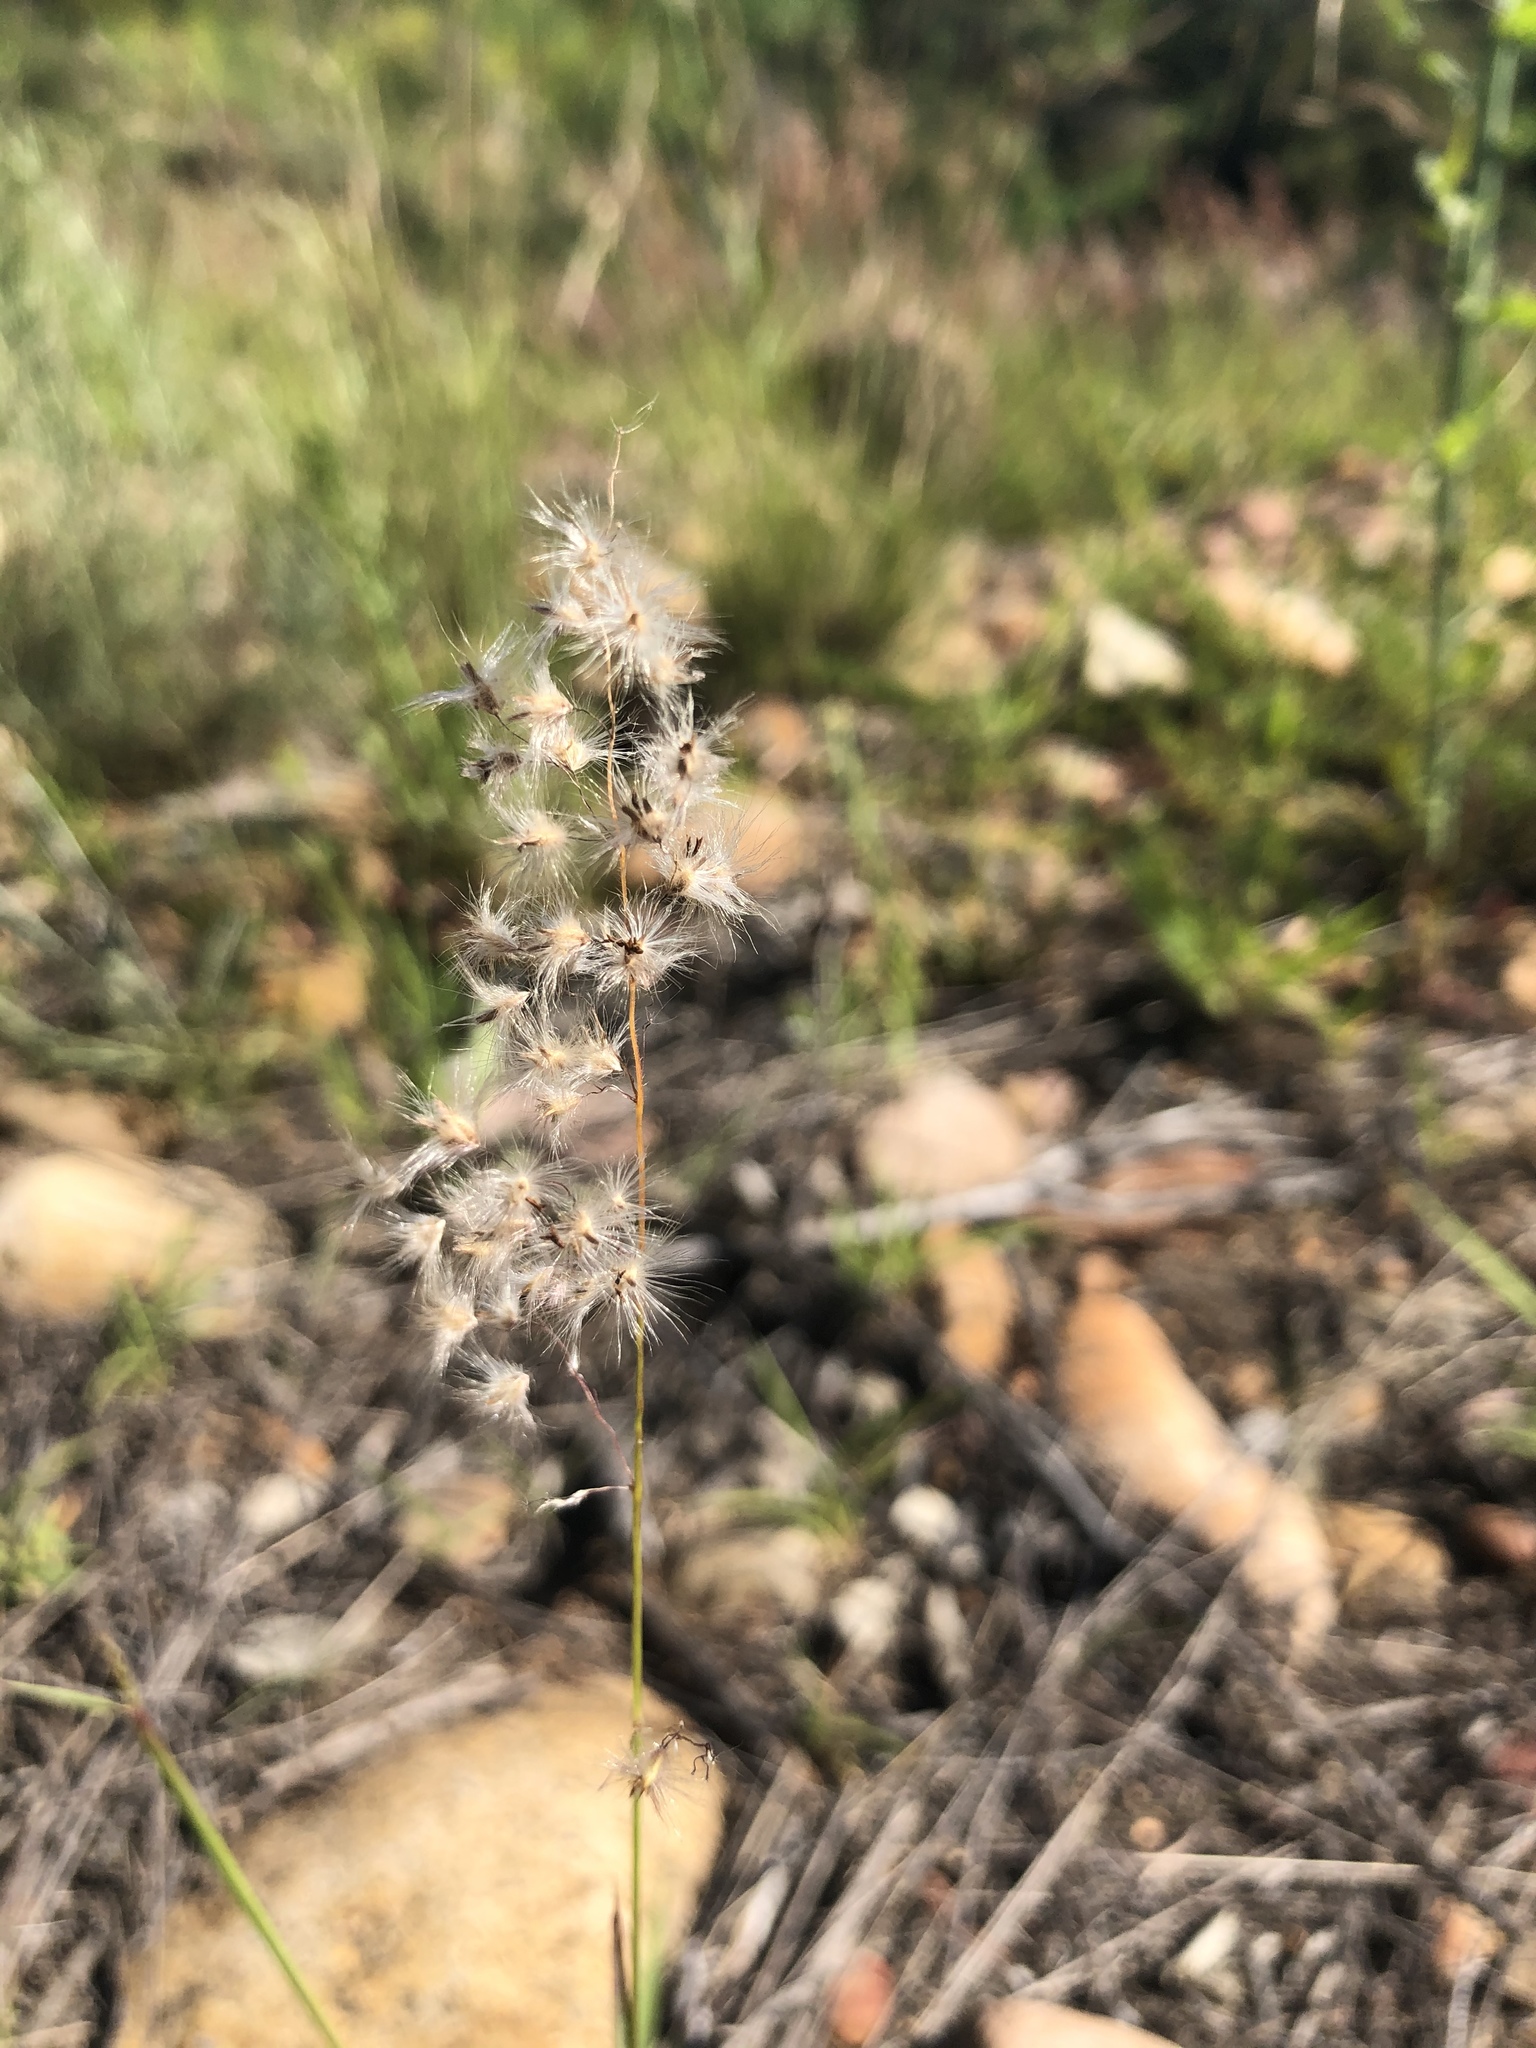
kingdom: Plantae
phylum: Tracheophyta
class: Liliopsida
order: Poales
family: Poaceae
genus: Melinis
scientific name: Melinis repens
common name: Rose natal grass
